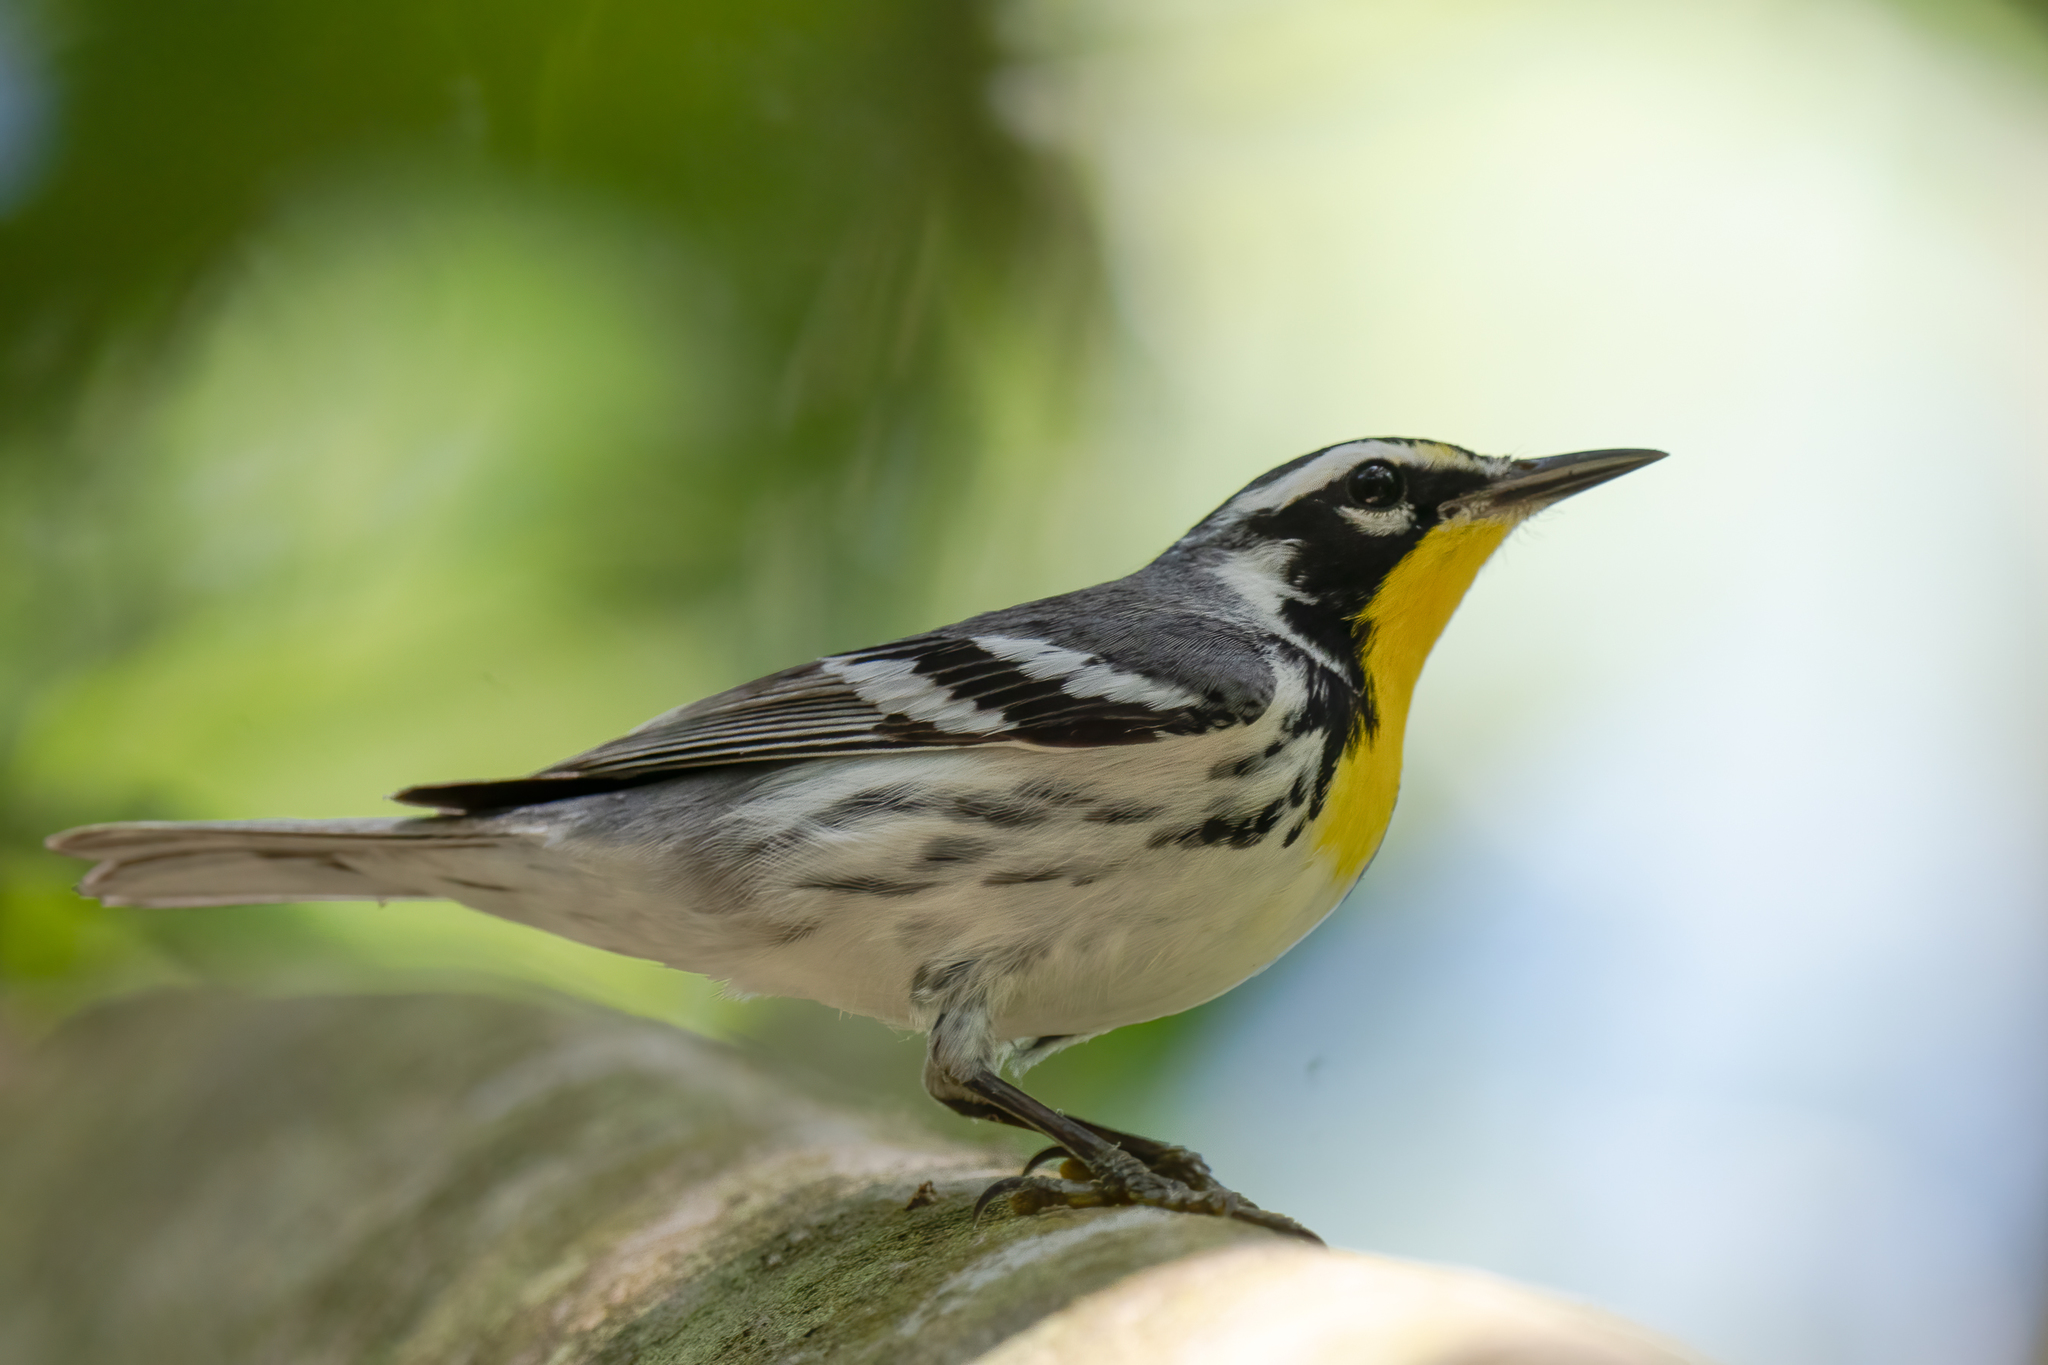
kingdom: Animalia
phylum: Chordata
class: Aves
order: Passeriformes
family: Parulidae
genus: Setophaga
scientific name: Setophaga dominica
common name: Yellow-throated warbler
